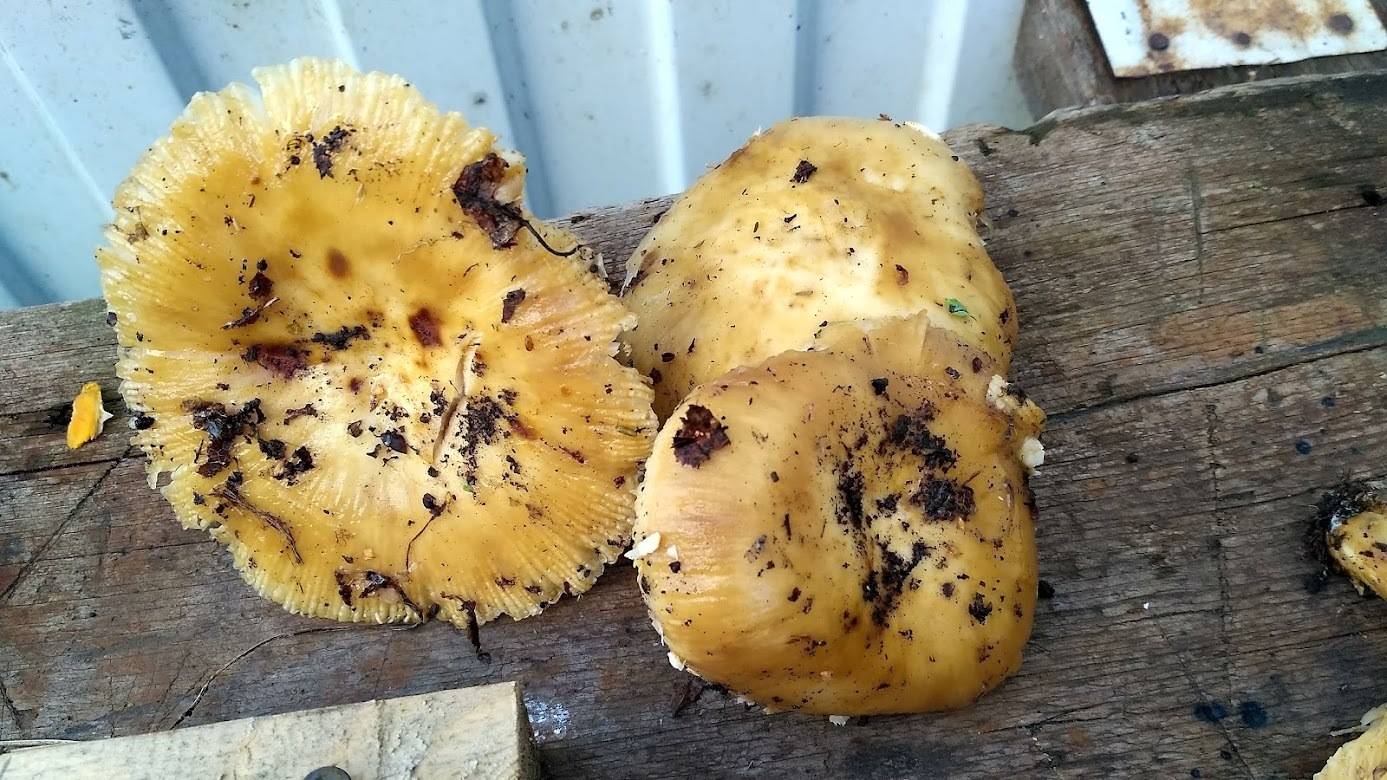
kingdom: Fungi
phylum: Basidiomycota
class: Agaricomycetes
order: Russulales
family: Russulaceae
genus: Russula
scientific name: Russula foetens
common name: Foetid russula
